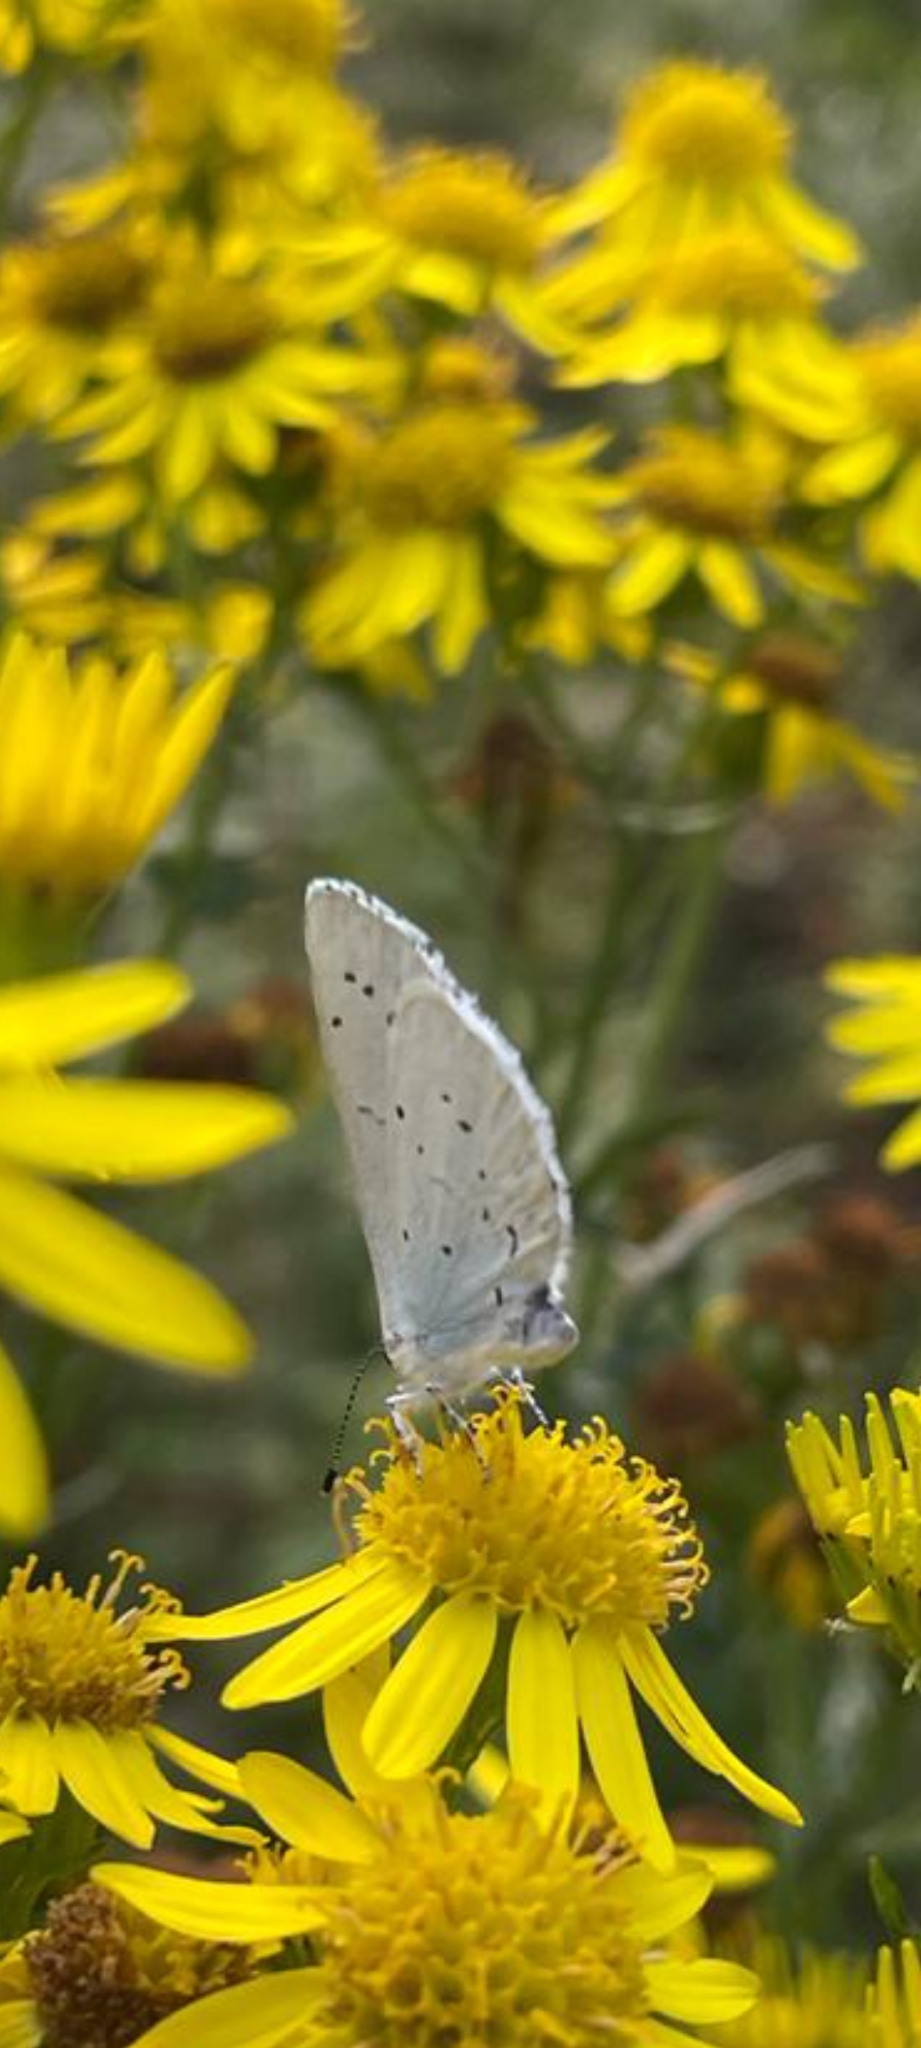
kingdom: Animalia
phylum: Arthropoda
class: Insecta
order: Lepidoptera
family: Lycaenidae
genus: Celastrina
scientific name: Celastrina argiolus
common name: Holly blue
